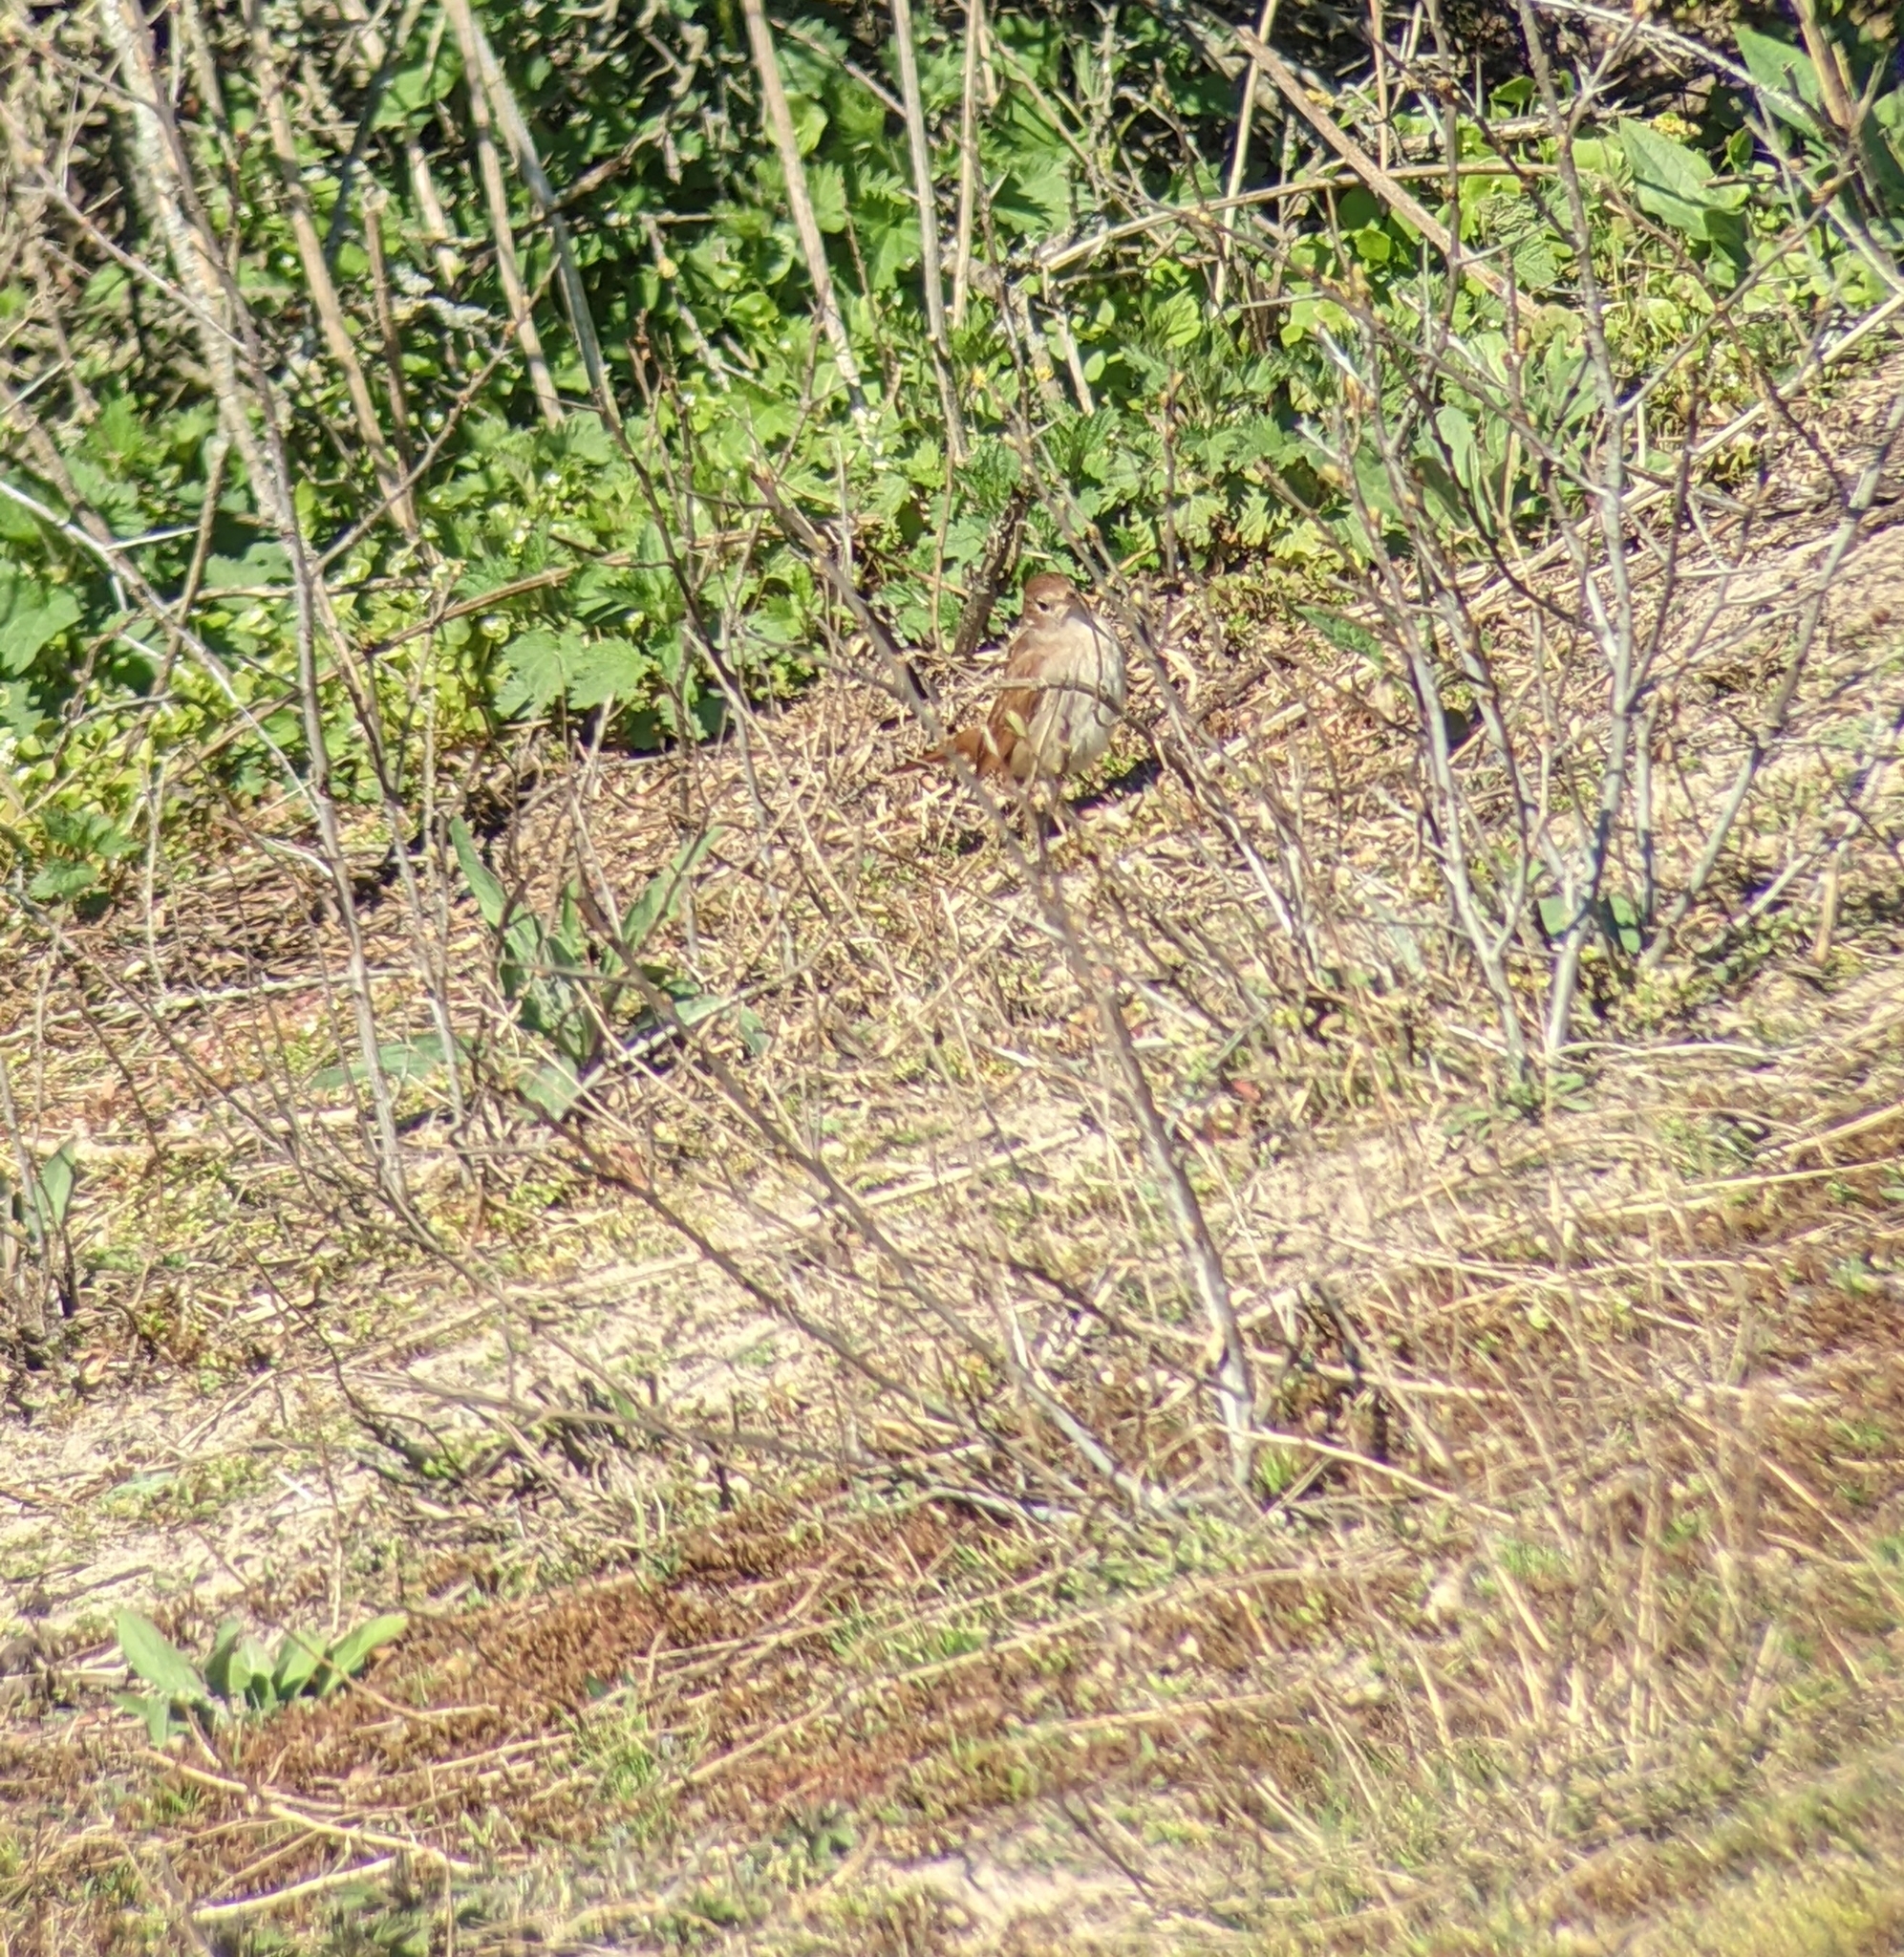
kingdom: Animalia
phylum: Chordata
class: Aves
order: Passeriformes
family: Muscicapidae
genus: Luscinia
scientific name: Luscinia megarhynchos
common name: Common nightingale
